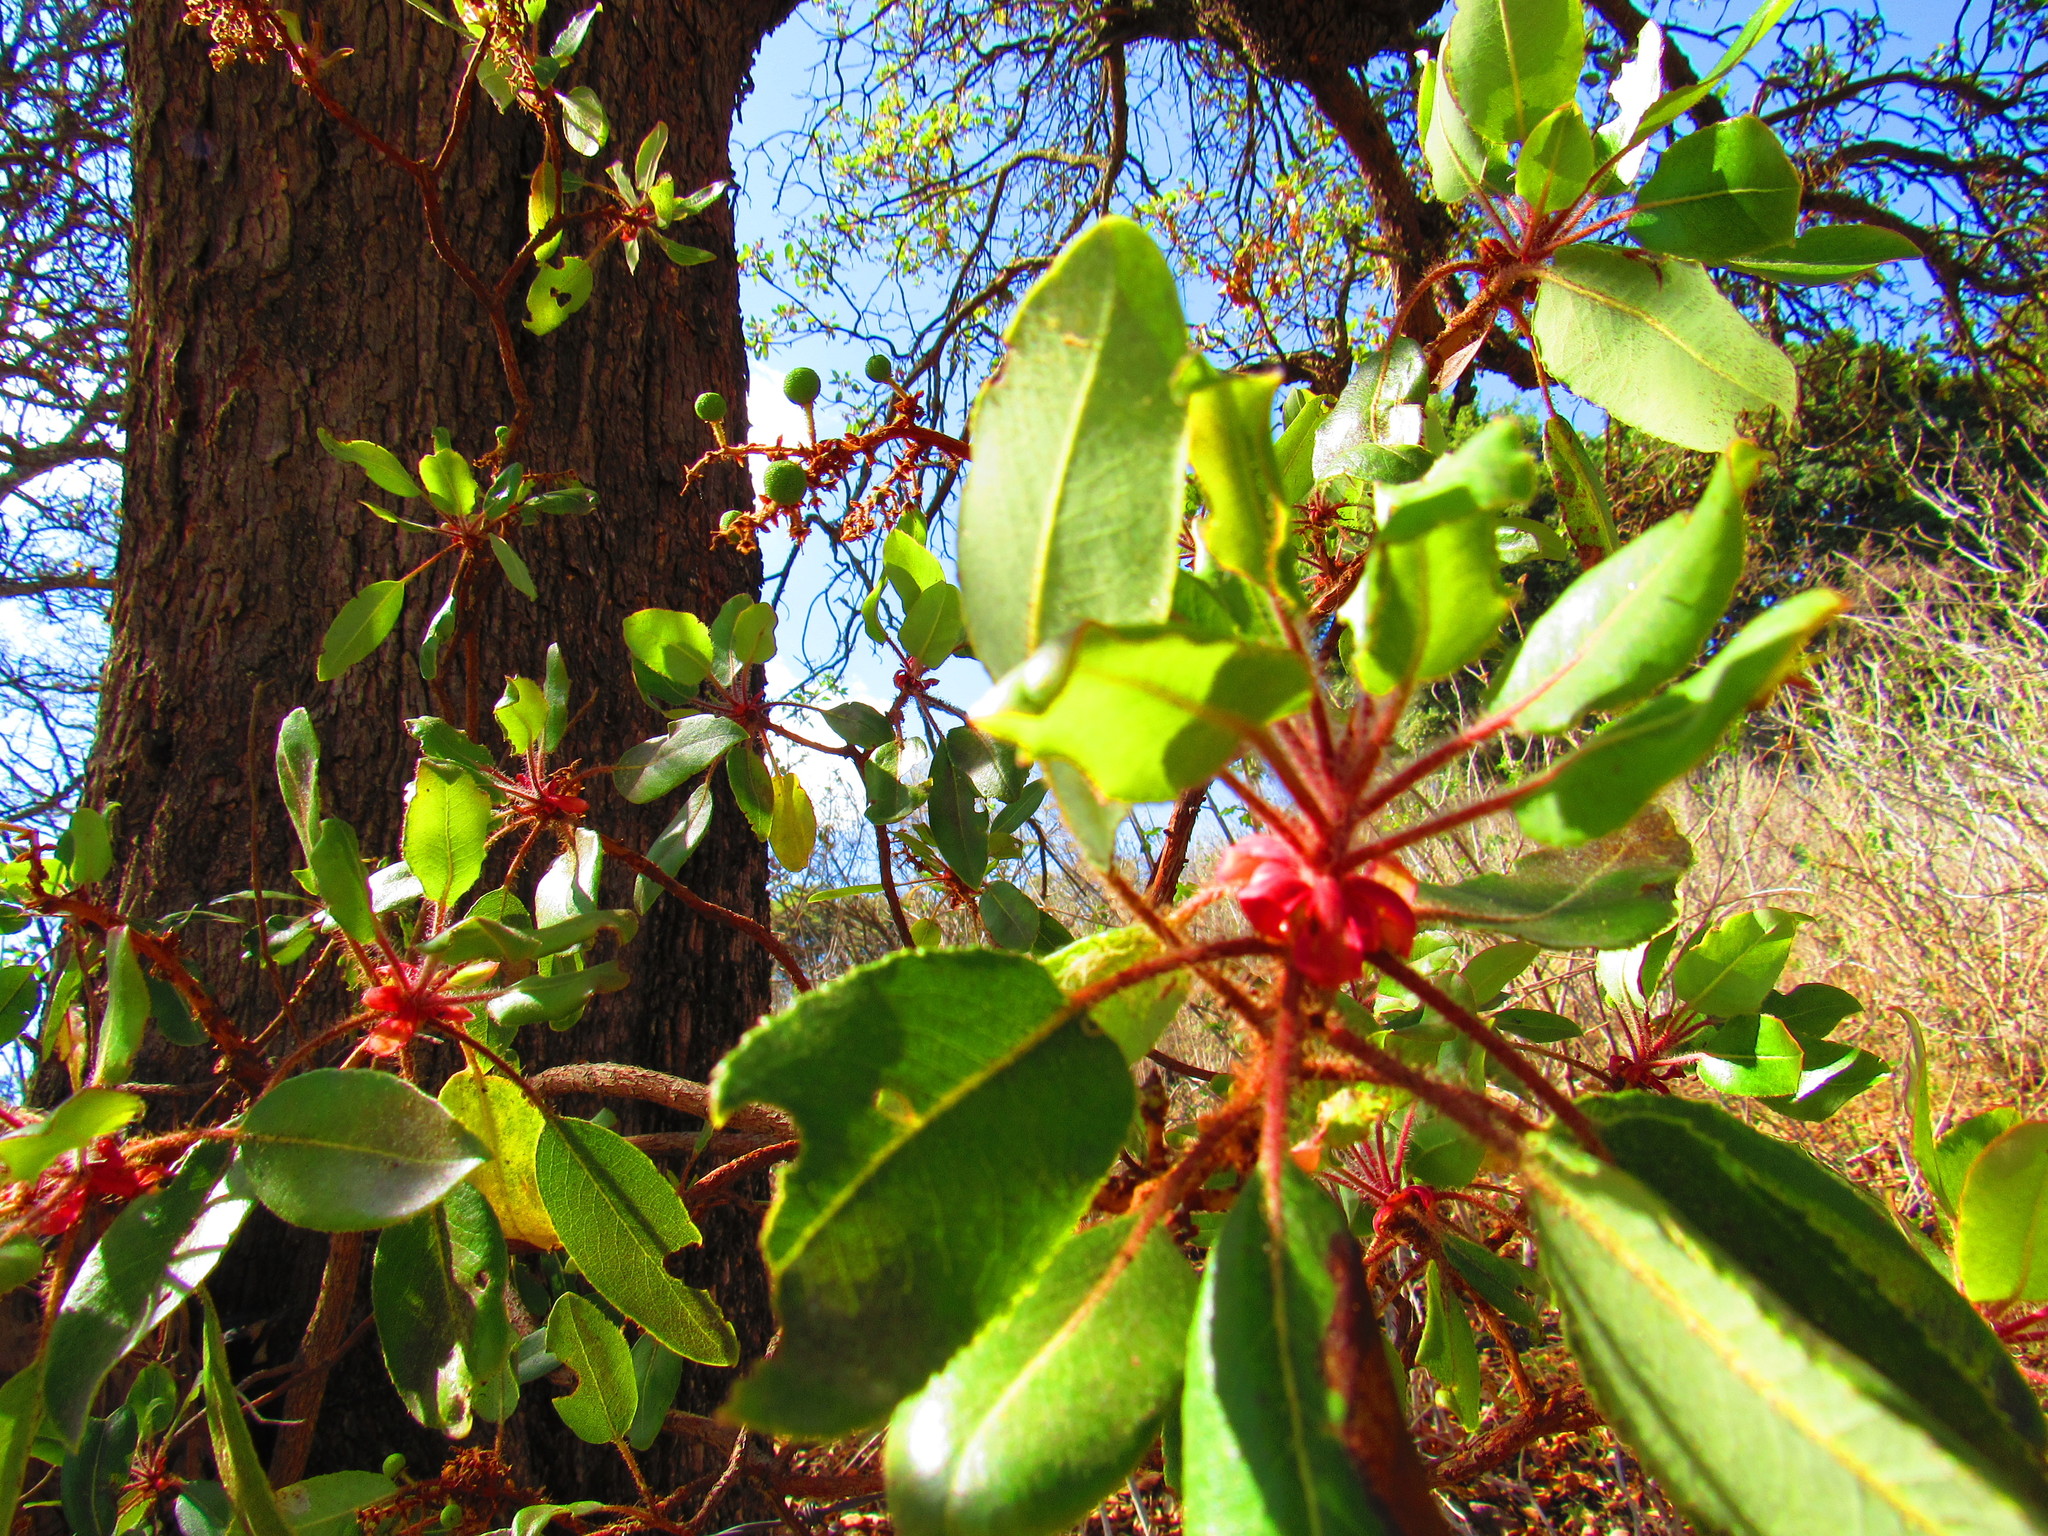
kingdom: Plantae
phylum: Tracheophyta
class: Magnoliopsida
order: Ericales
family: Ericaceae
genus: Arbutus
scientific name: Arbutus tessellata
